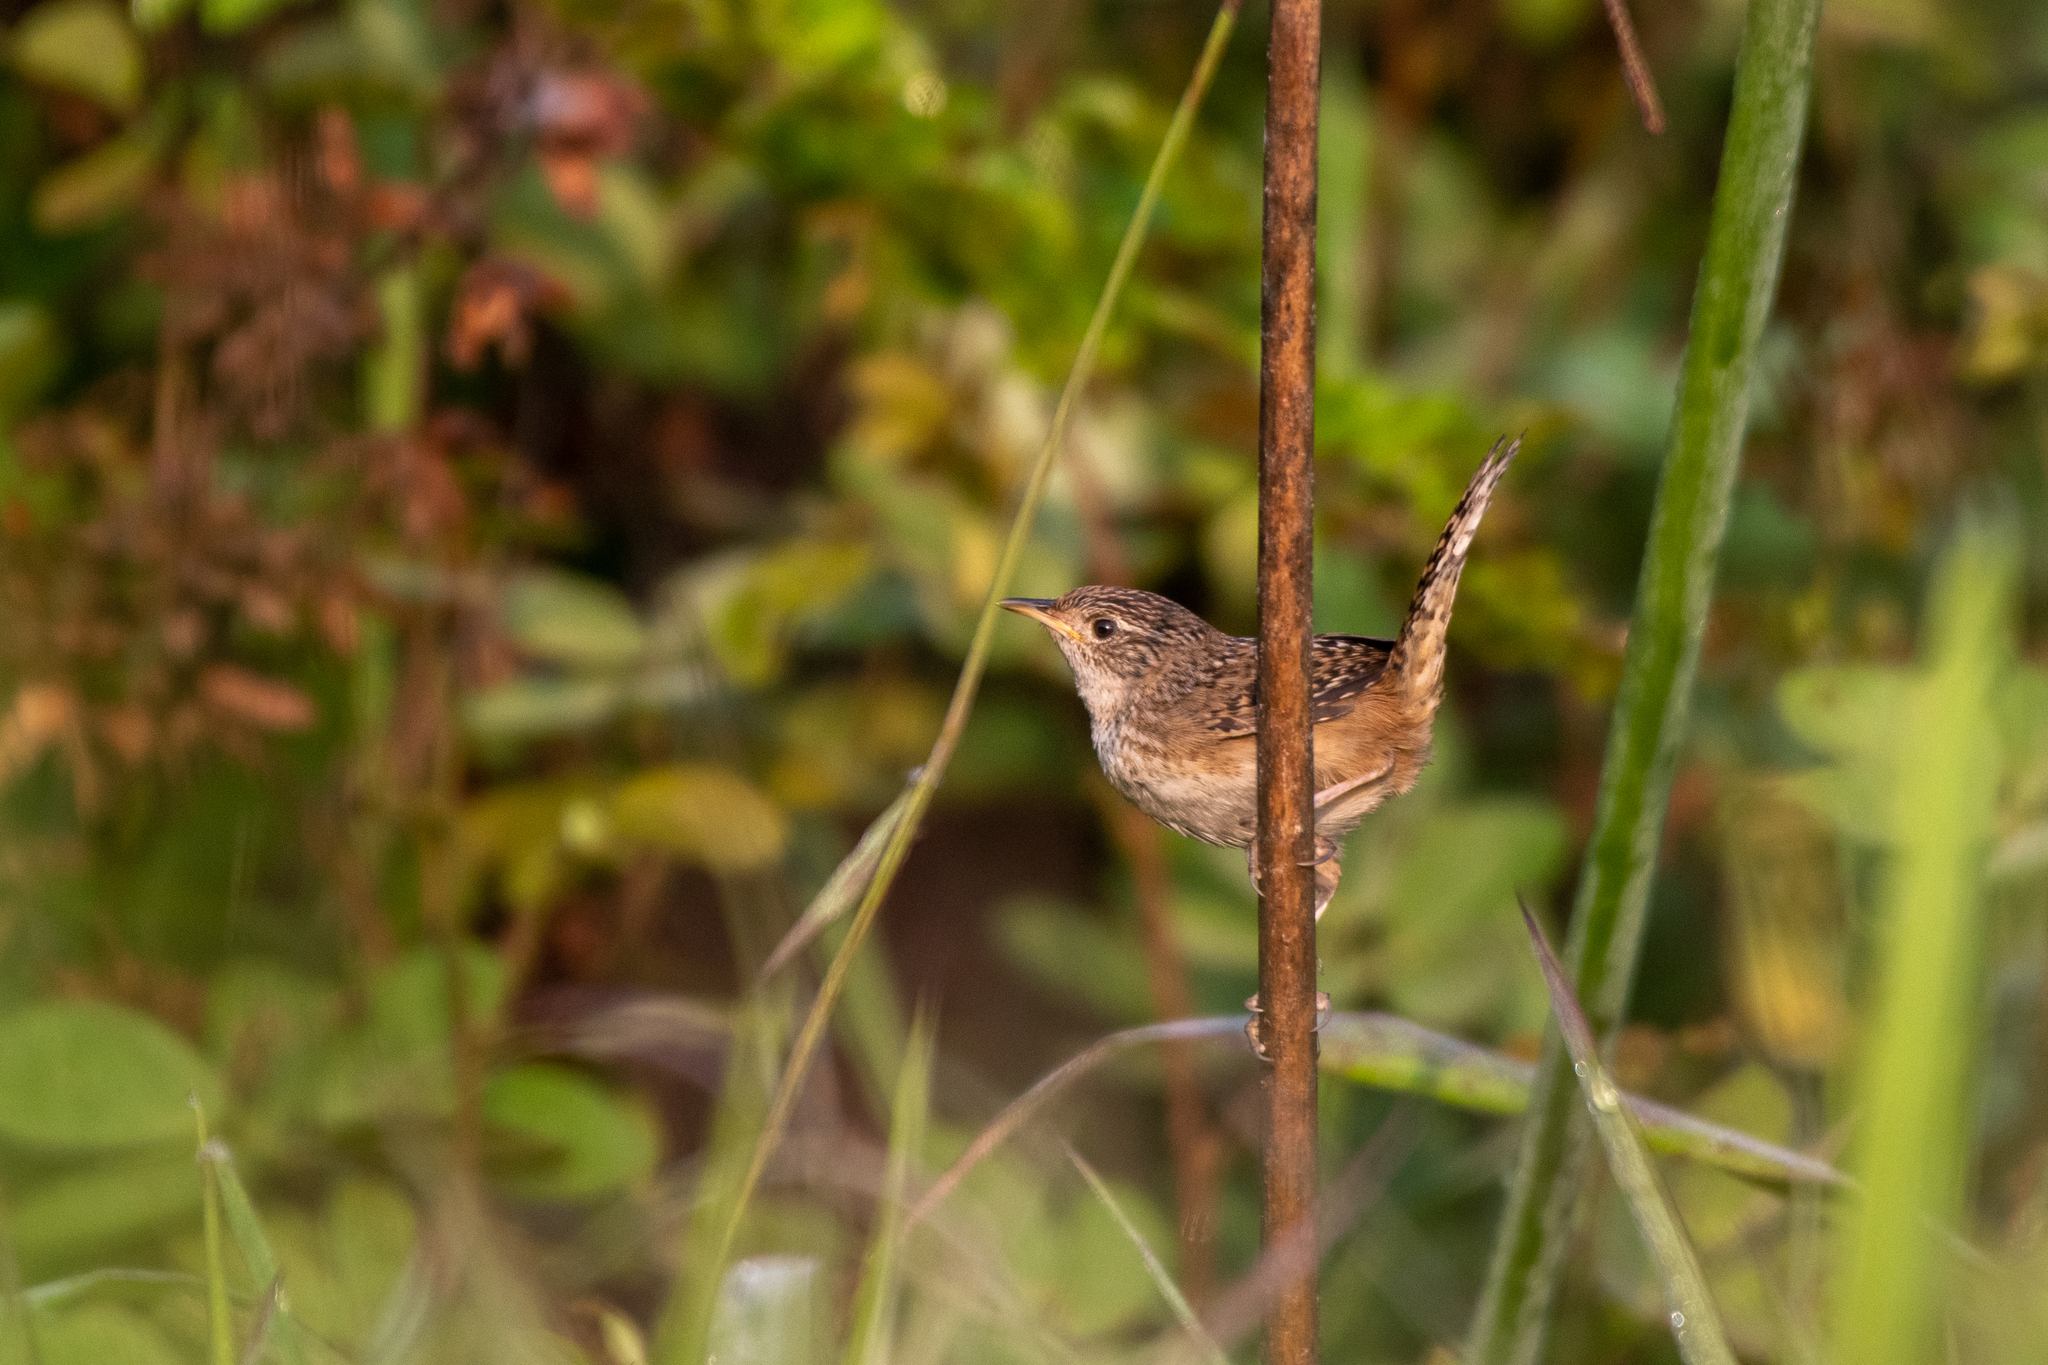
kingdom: Animalia
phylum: Chordata
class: Aves
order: Passeriformes
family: Troglodytidae
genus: Cistothorus
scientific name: Cistothorus platensis
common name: Sedge wren
